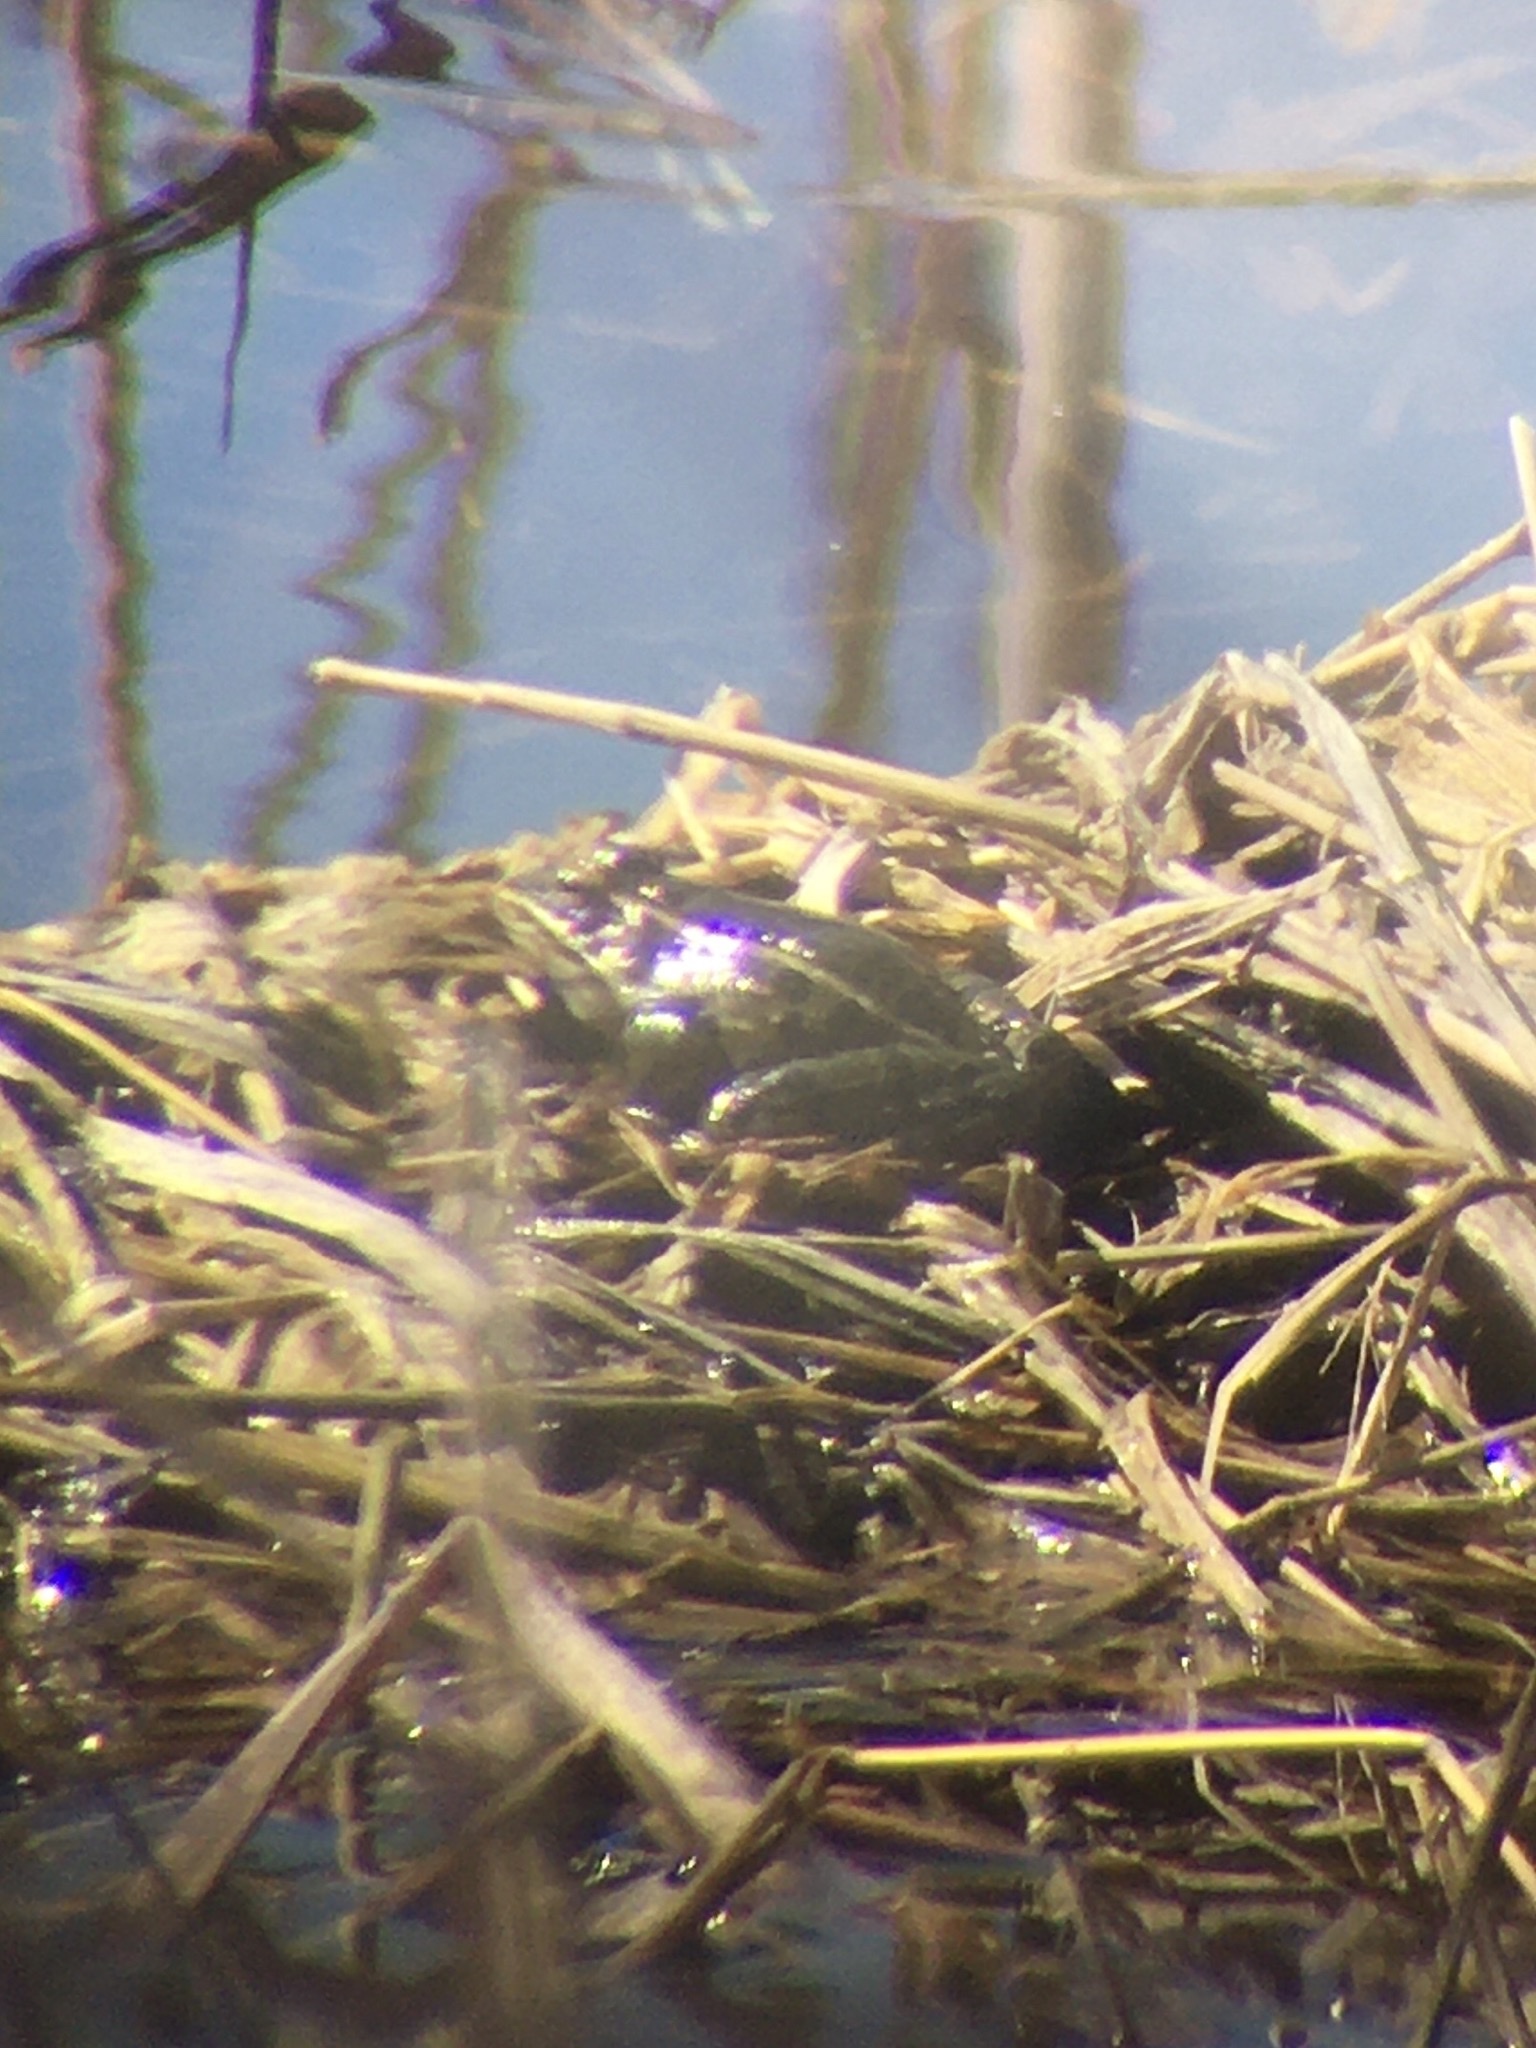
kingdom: Animalia
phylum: Chordata
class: Amphibia
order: Anura
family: Ranidae
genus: Lithobates
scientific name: Lithobates pipiens
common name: Northern leopard frog
